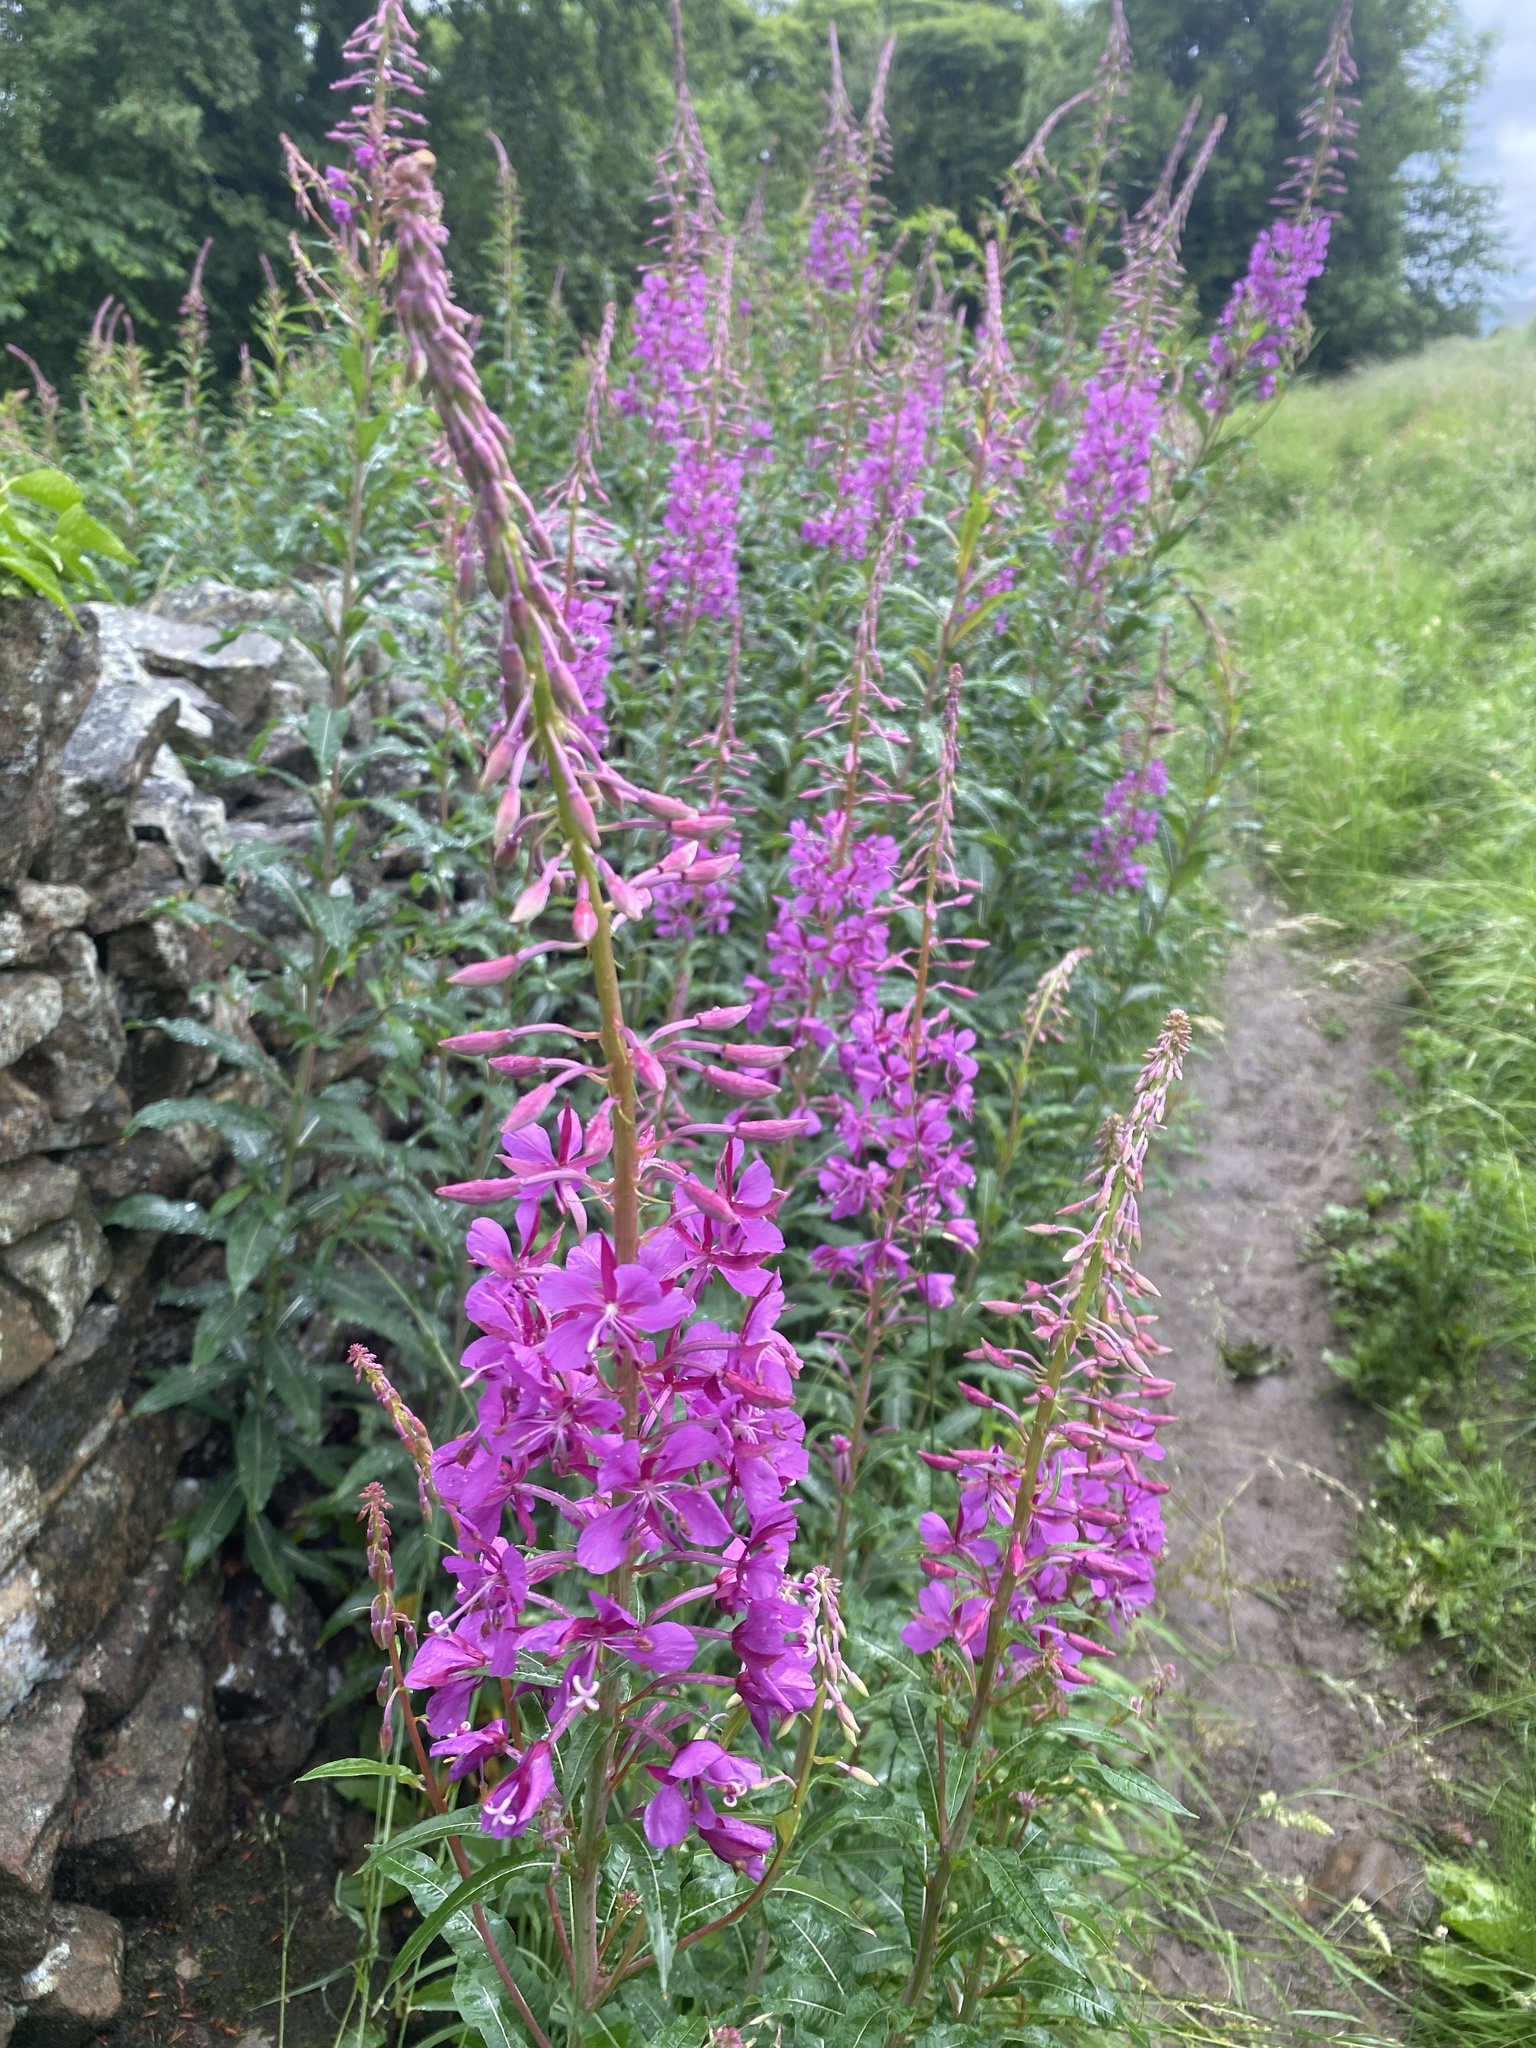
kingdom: Plantae
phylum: Tracheophyta
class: Magnoliopsida
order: Myrtales
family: Onagraceae
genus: Chamaenerion
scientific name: Chamaenerion angustifolium
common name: Fireweed
